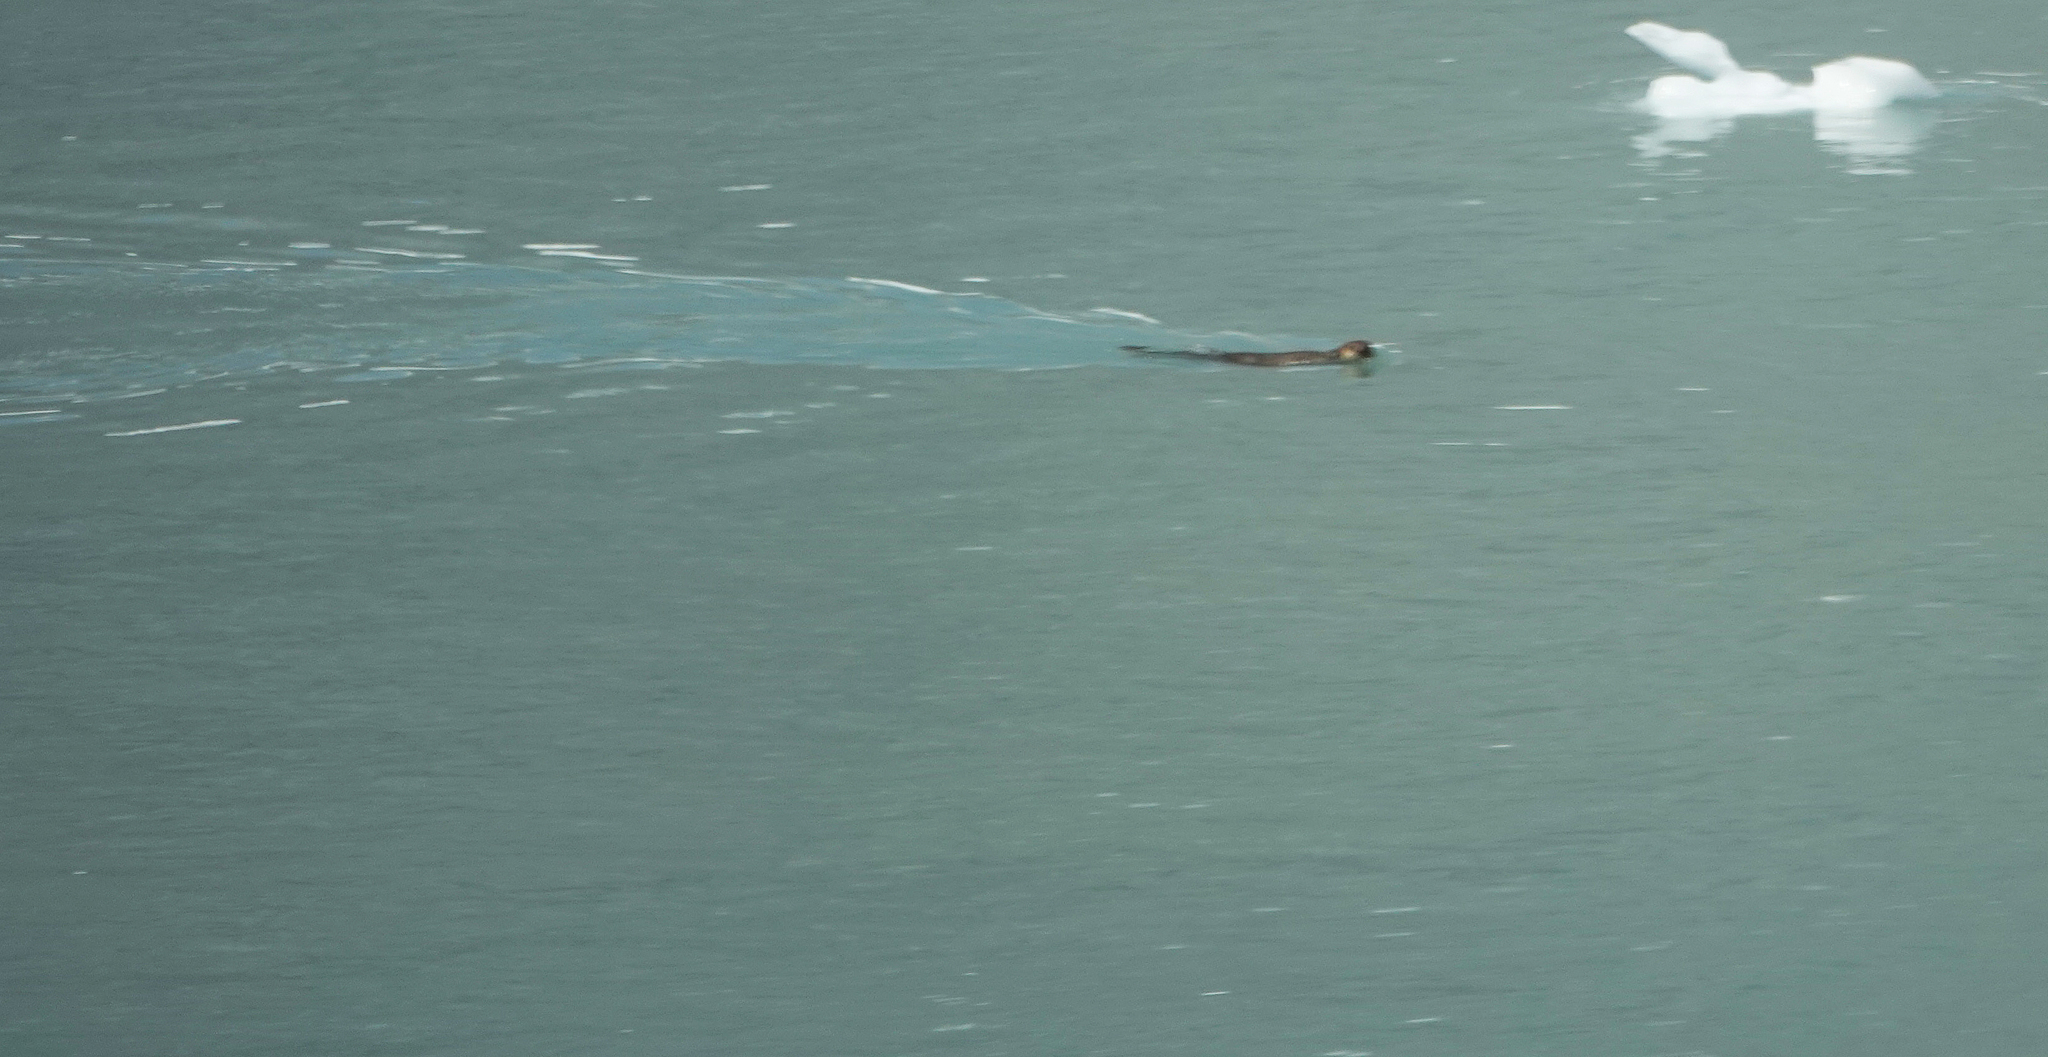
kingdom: Animalia
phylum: Chordata
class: Mammalia
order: Carnivora
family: Mustelidae
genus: Enhydra
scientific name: Enhydra lutris
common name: Sea otter
